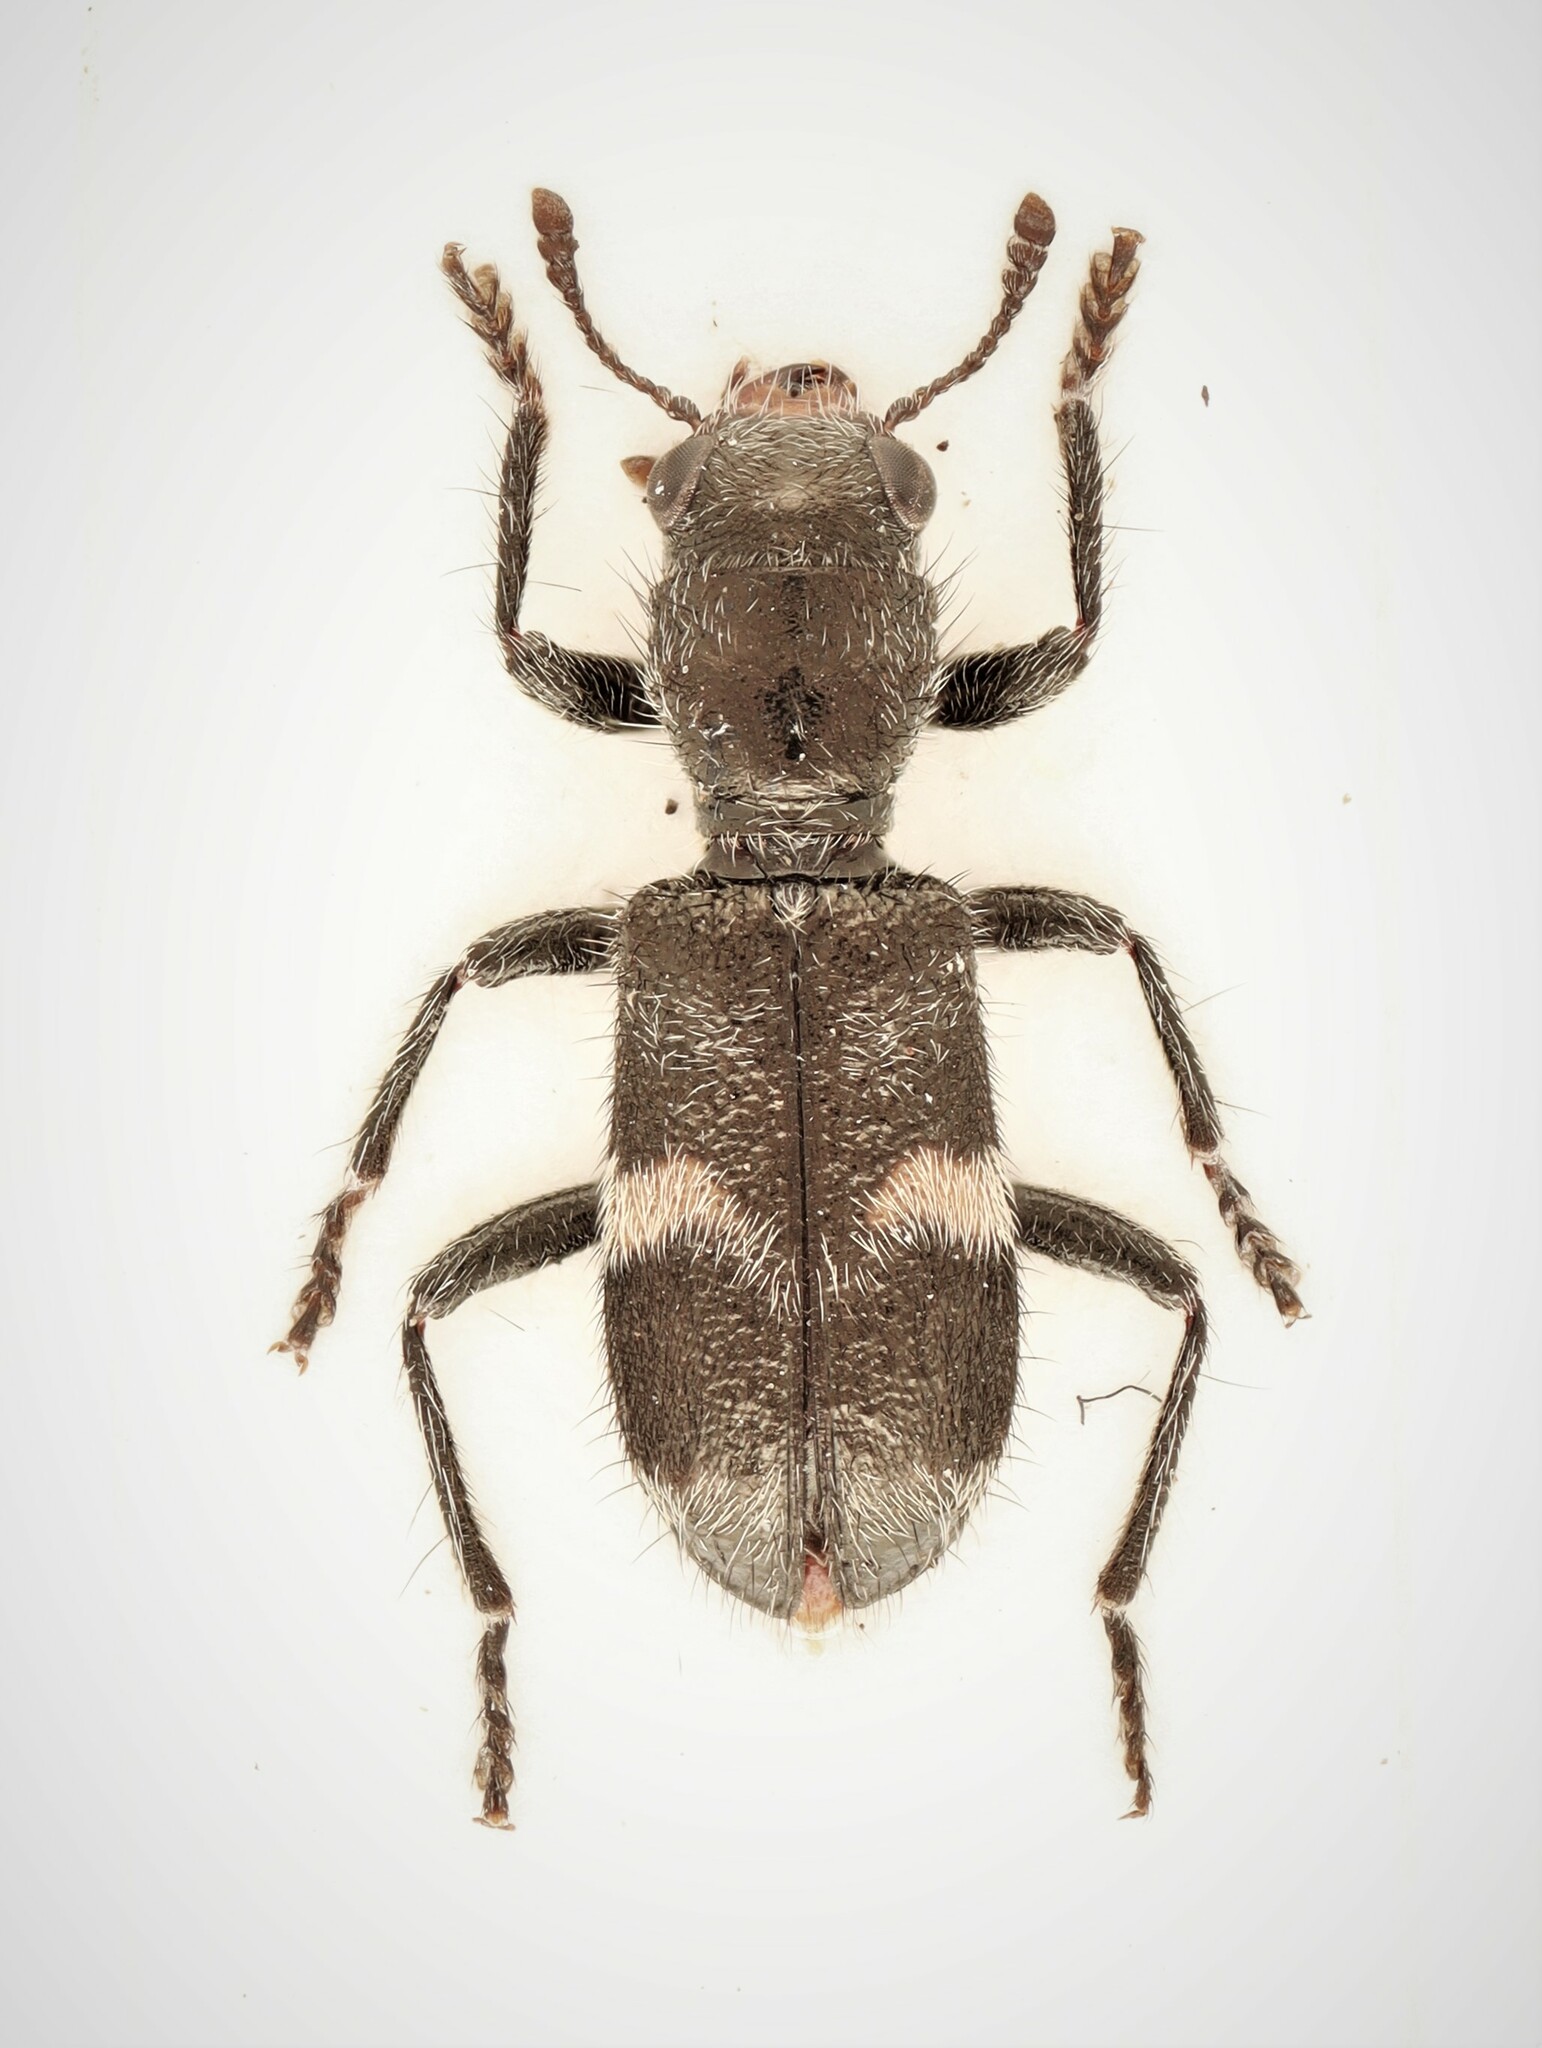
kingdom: Animalia
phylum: Arthropoda
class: Insecta
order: Coleoptera
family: Cleridae
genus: Enoclerus
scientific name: Enoclerus nigripes
